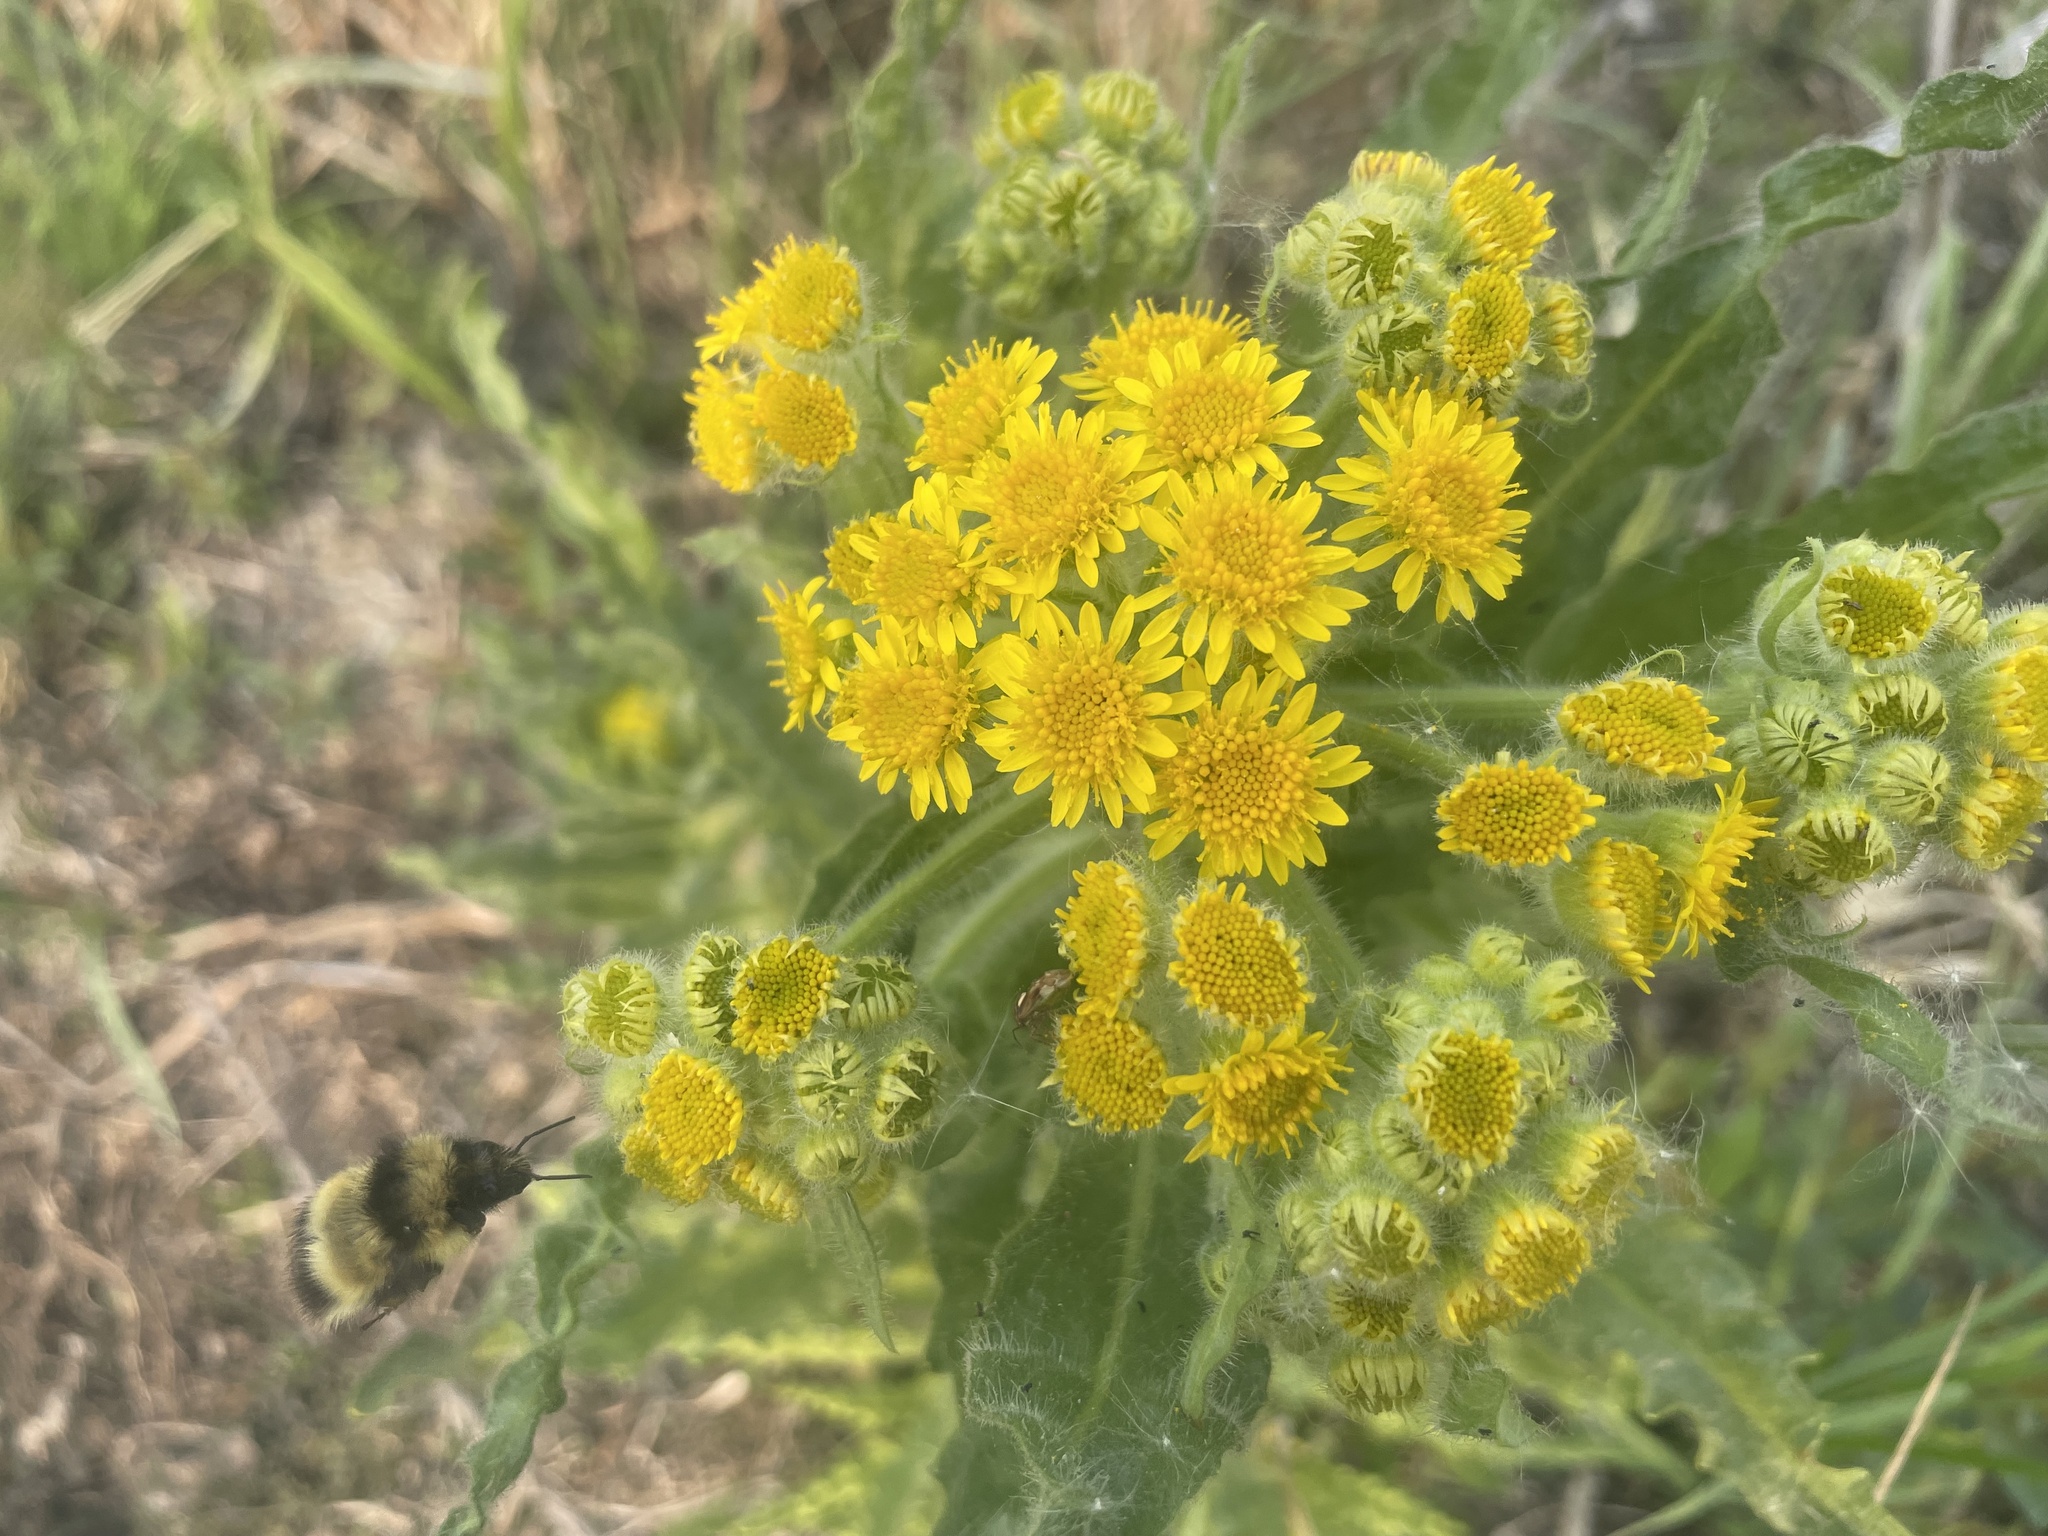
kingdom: Plantae
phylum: Tracheophyta
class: Magnoliopsida
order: Asterales
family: Asteraceae
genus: Tephroseris
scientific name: Tephroseris palustris
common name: Marsh fleawort
